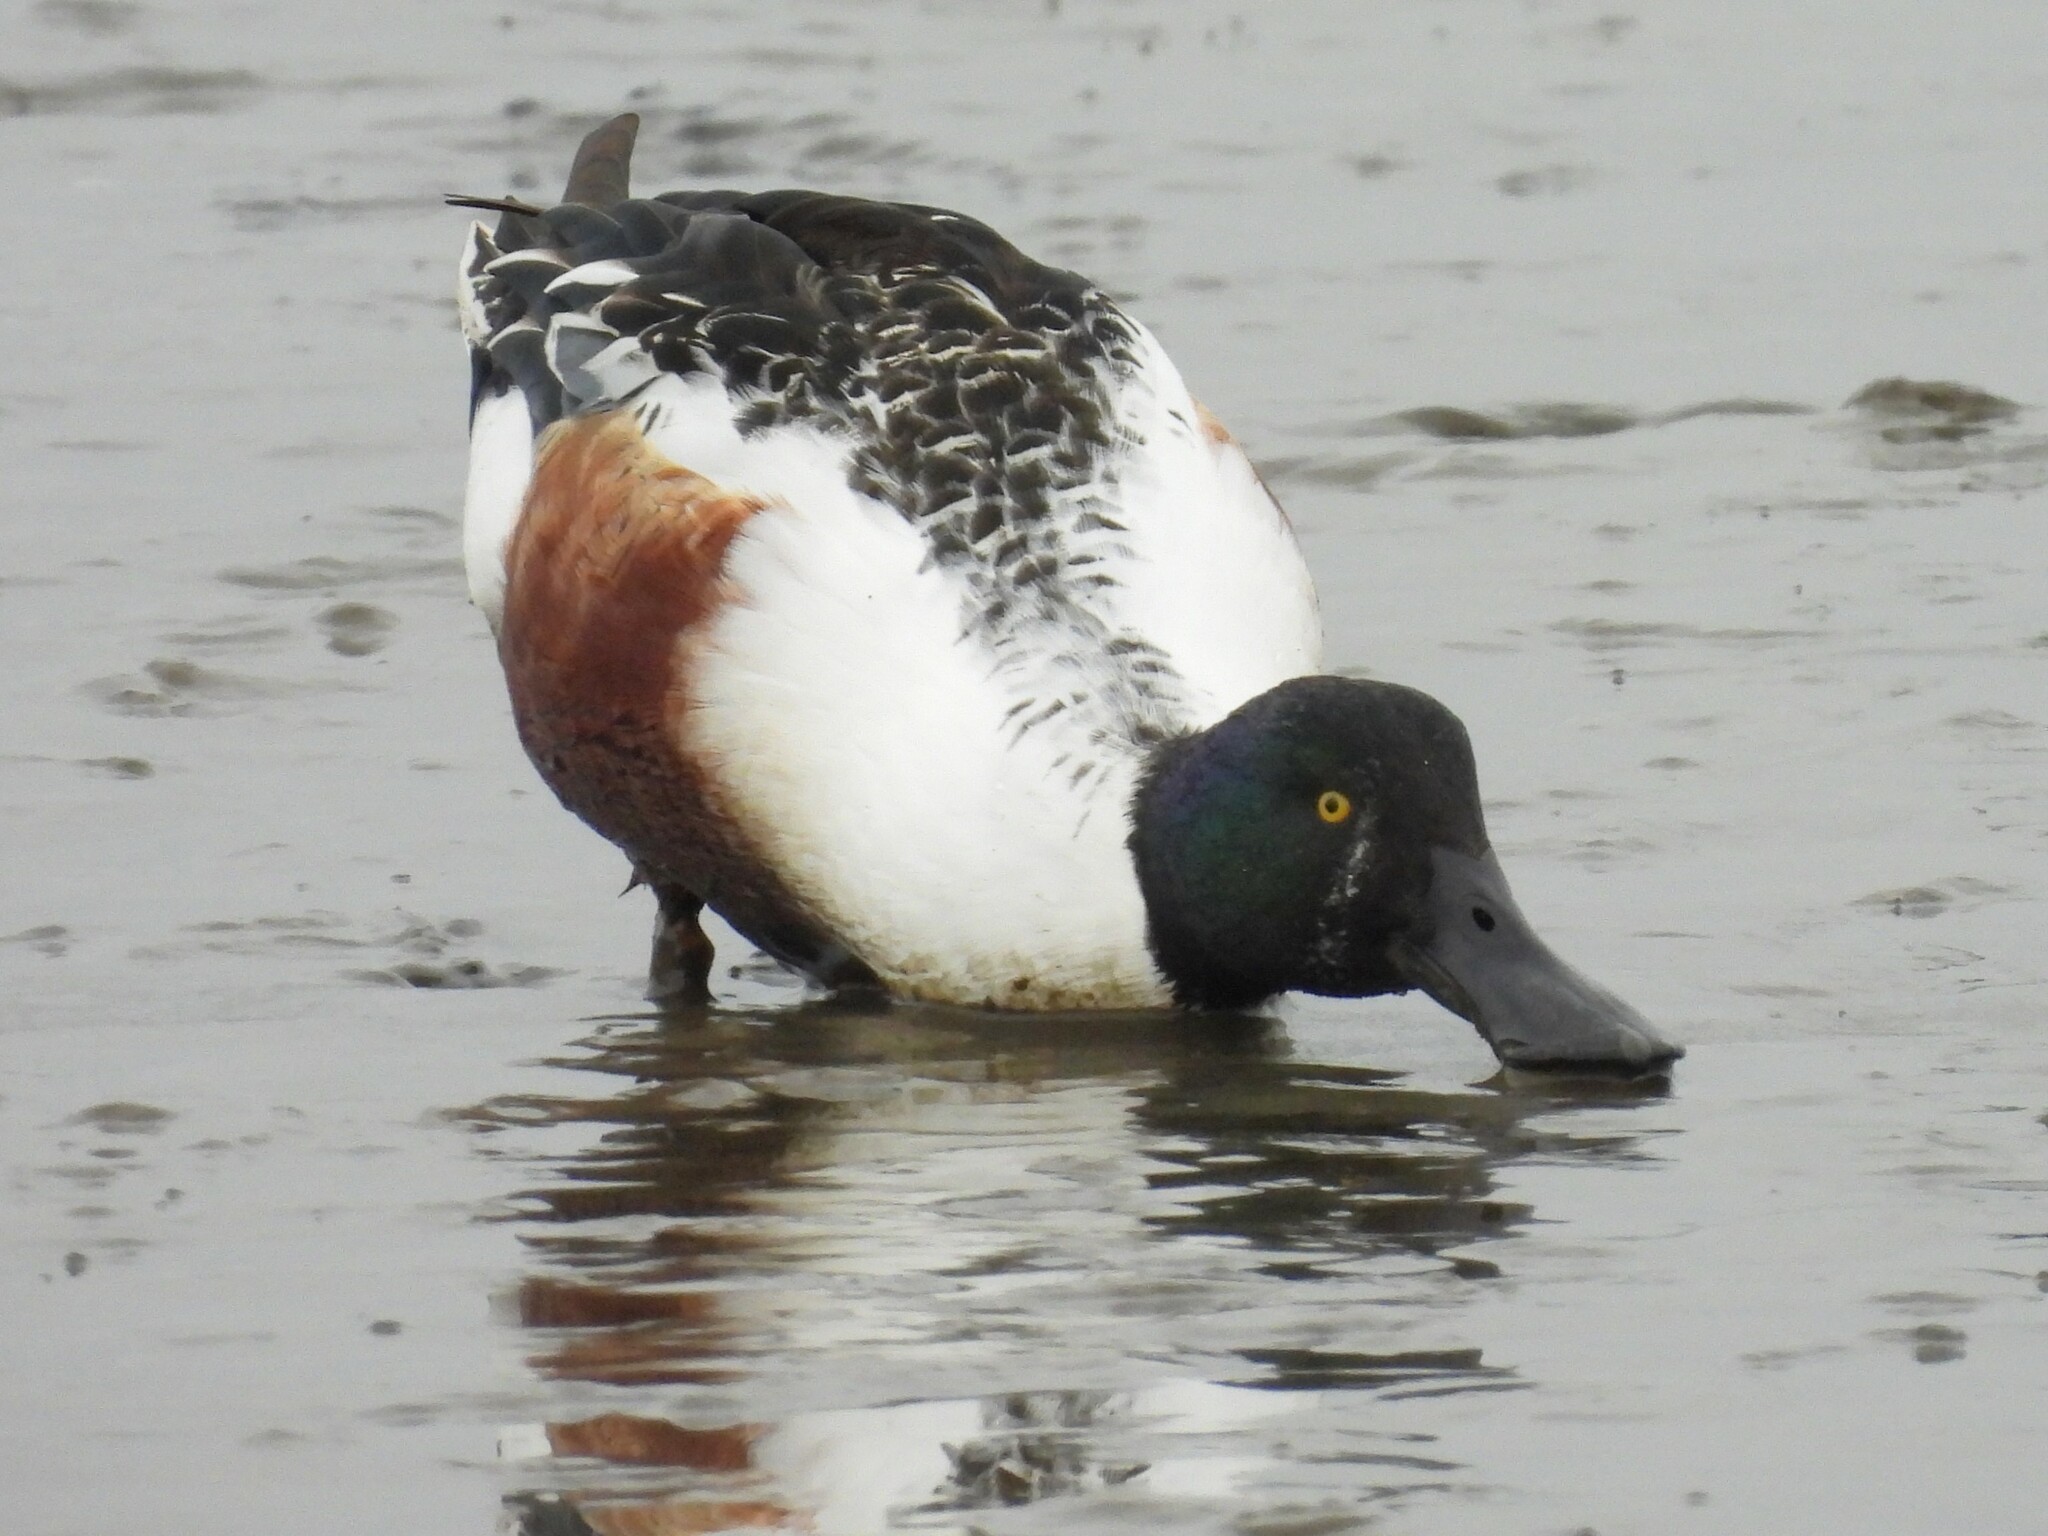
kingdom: Animalia
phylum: Chordata
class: Aves
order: Anseriformes
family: Anatidae
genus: Spatula
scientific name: Spatula clypeata
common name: Northern shoveler
